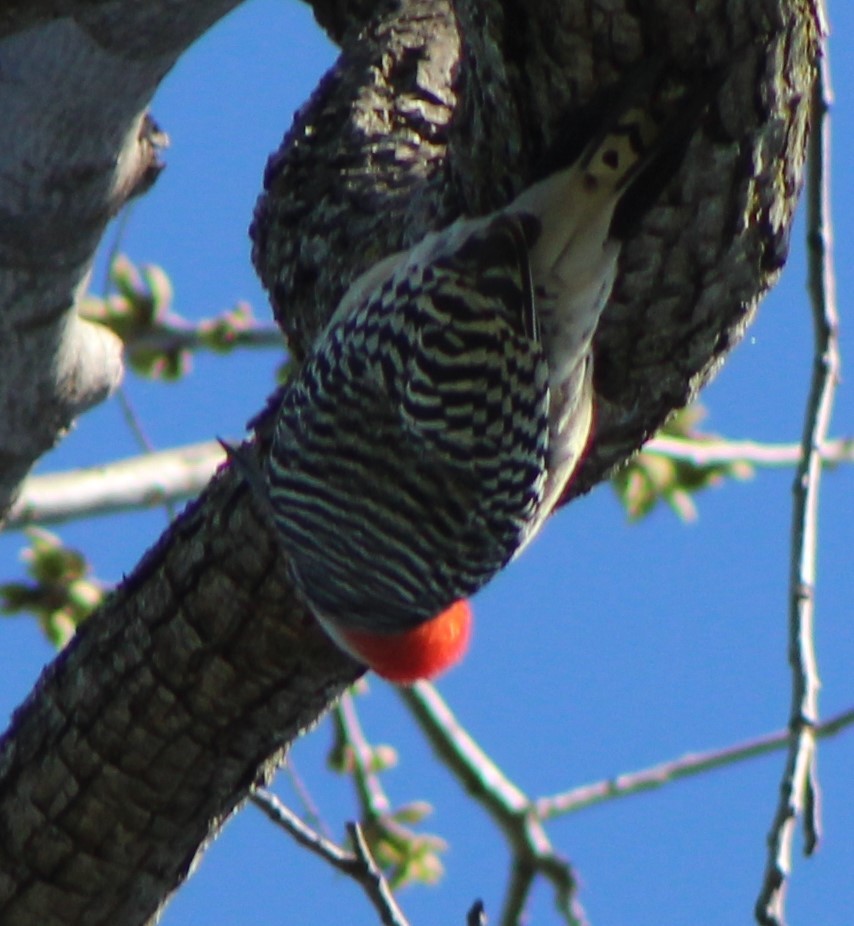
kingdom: Animalia
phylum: Chordata
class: Aves
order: Piciformes
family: Picidae
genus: Melanerpes
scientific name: Melanerpes carolinus
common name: Red-bellied woodpecker
